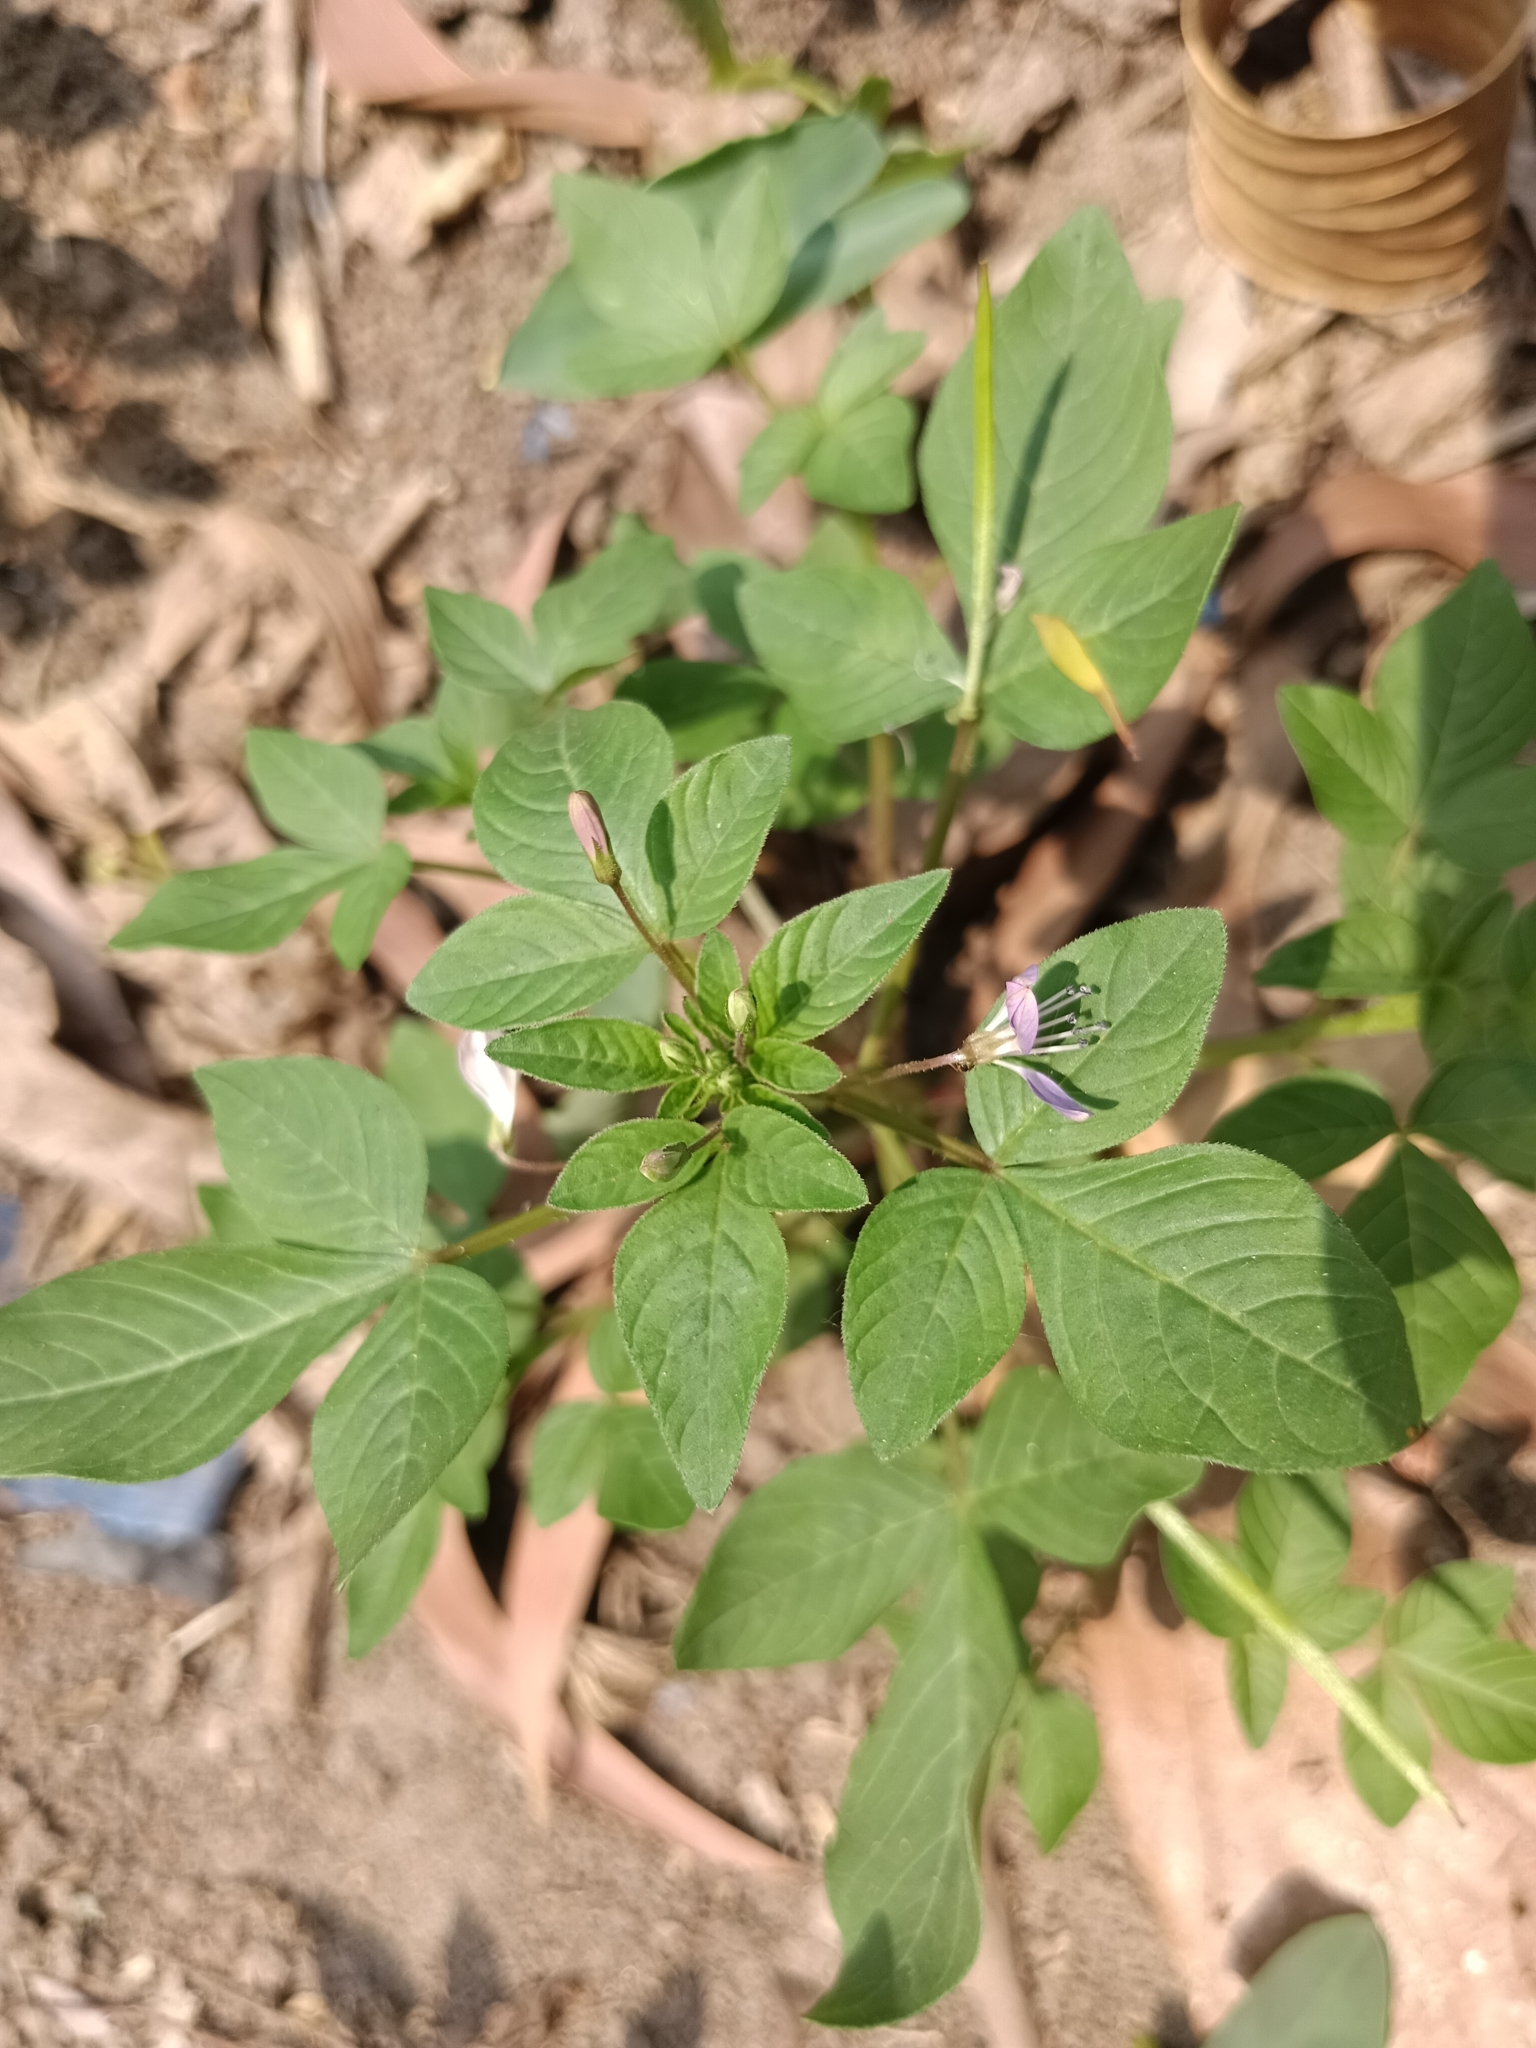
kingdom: Plantae
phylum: Tracheophyta
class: Magnoliopsida
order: Brassicales
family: Cleomaceae
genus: Sieruela
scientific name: Sieruela rutidosperma
